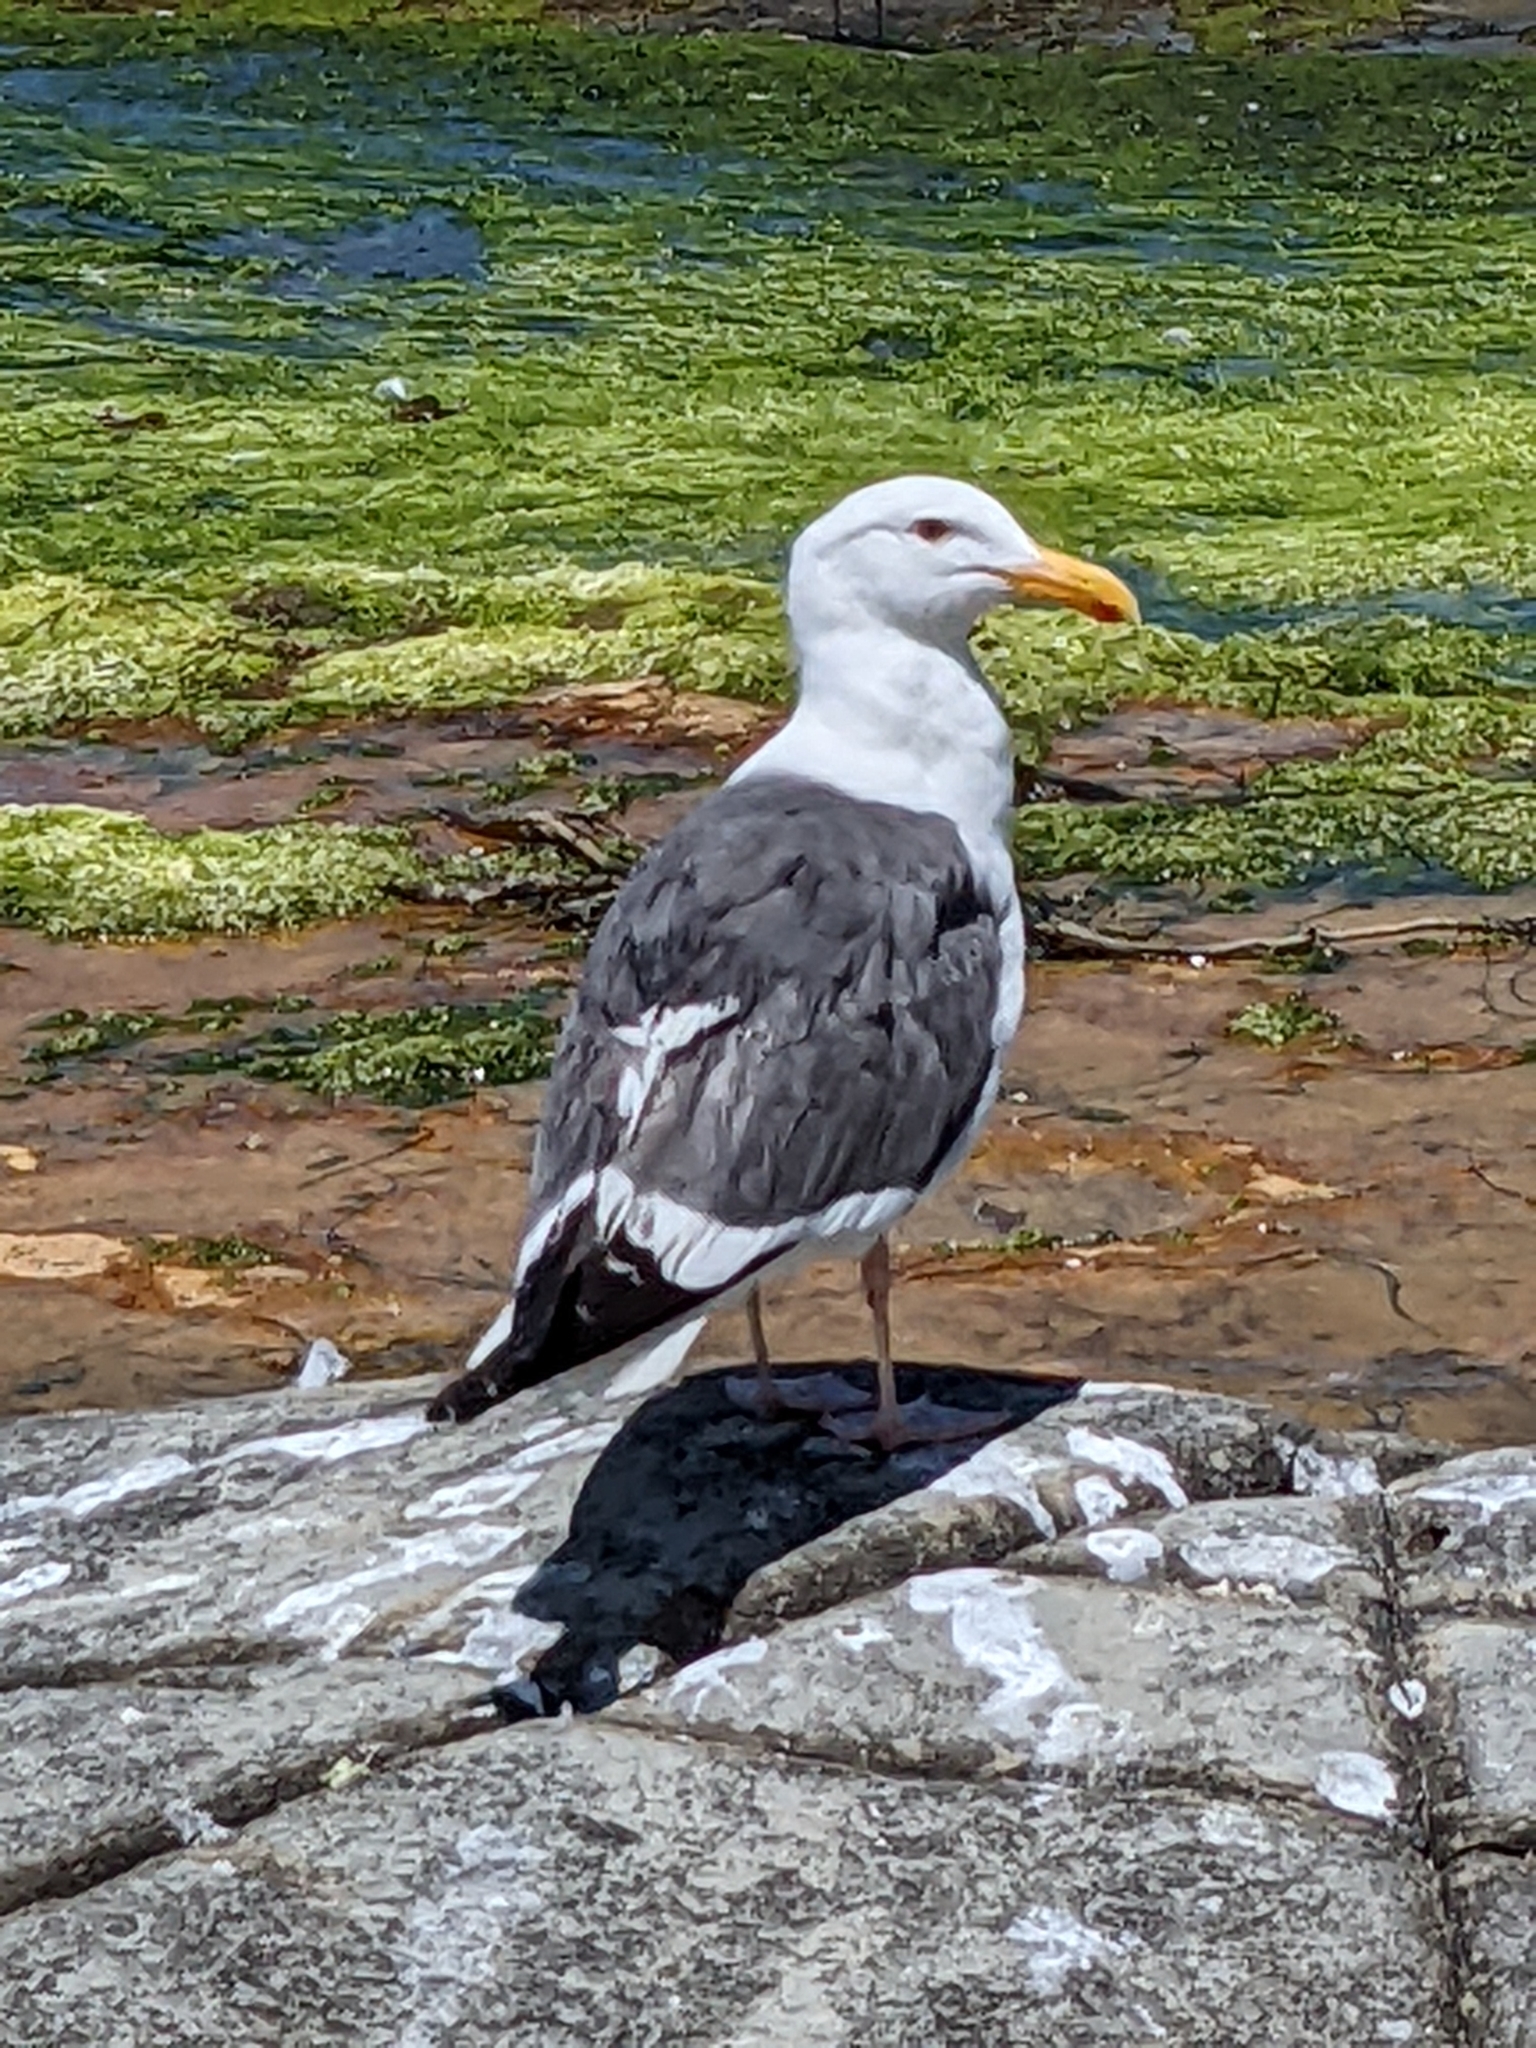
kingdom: Animalia
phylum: Chordata
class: Aves
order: Charadriiformes
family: Laridae
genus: Larus
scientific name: Larus occidentalis
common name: Western gull
